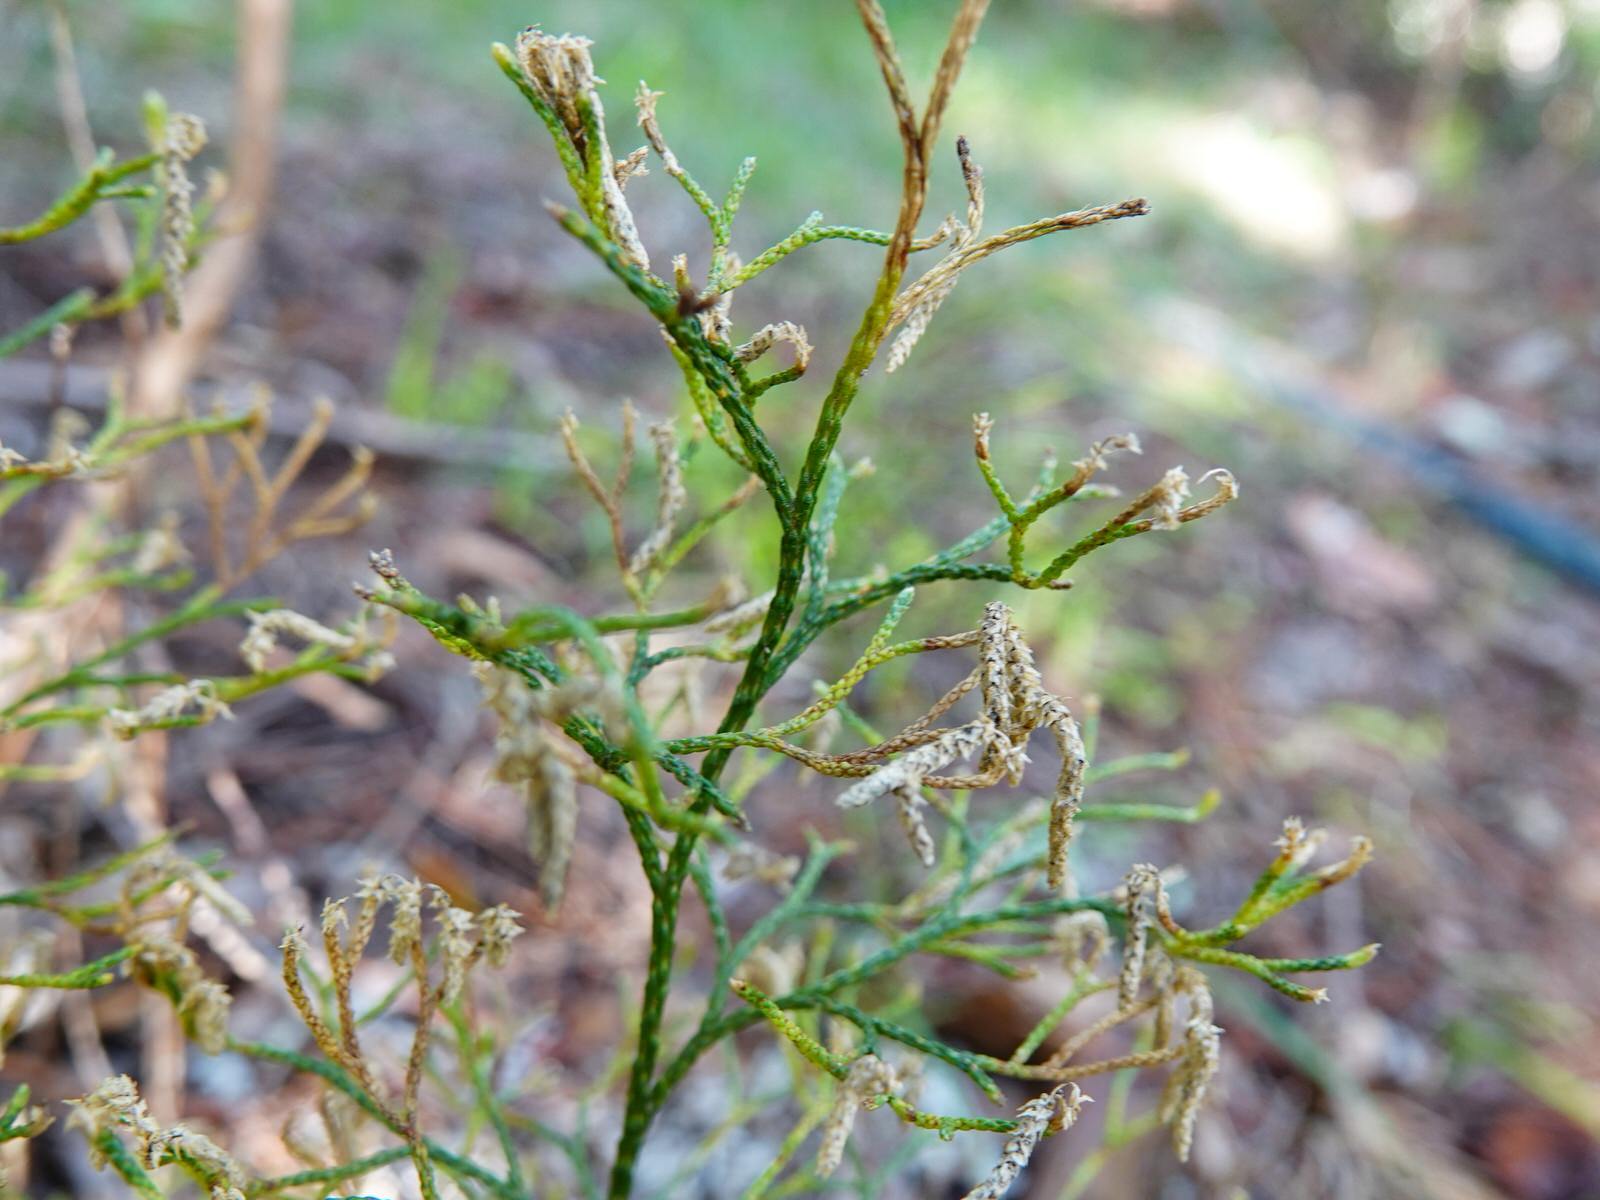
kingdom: Plantae
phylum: Tracheophyta
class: Lycopodiopsida
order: Lycopodiales
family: Lycopodiaceae
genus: Pseudolycopodium
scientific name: Pseudolycopodium densum
